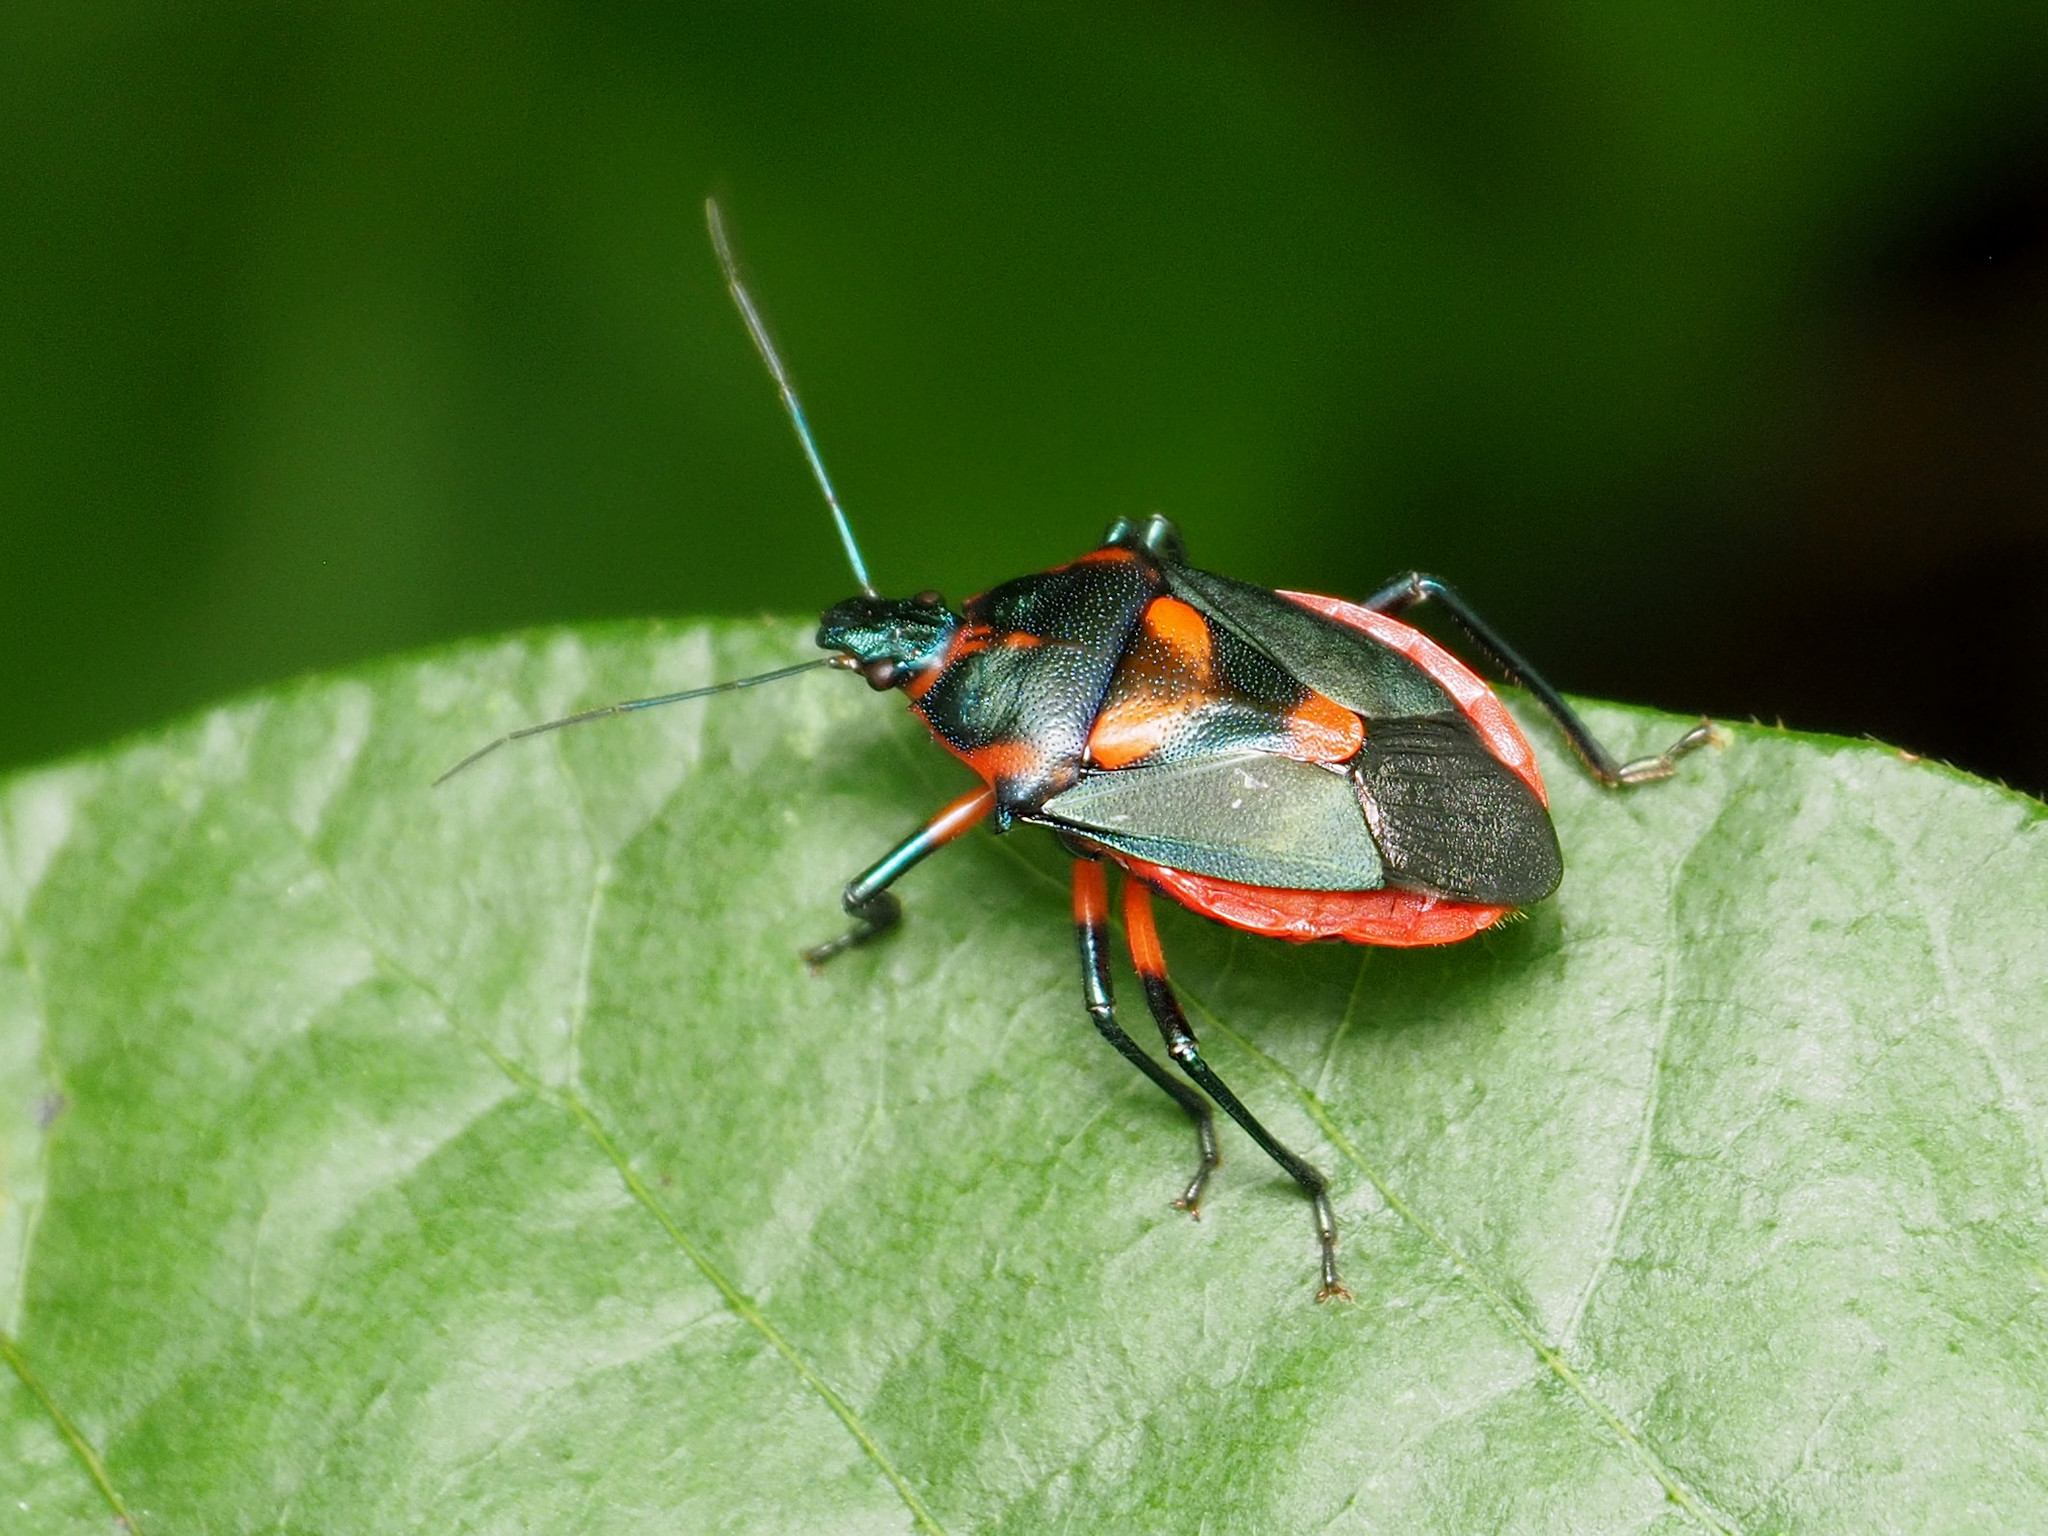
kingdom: Animalia
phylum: Arthropoda
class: Insecta
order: Hemiptera
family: Pentatomidae
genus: Euthyrhynchus
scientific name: Euthyrhynchus floridanus
